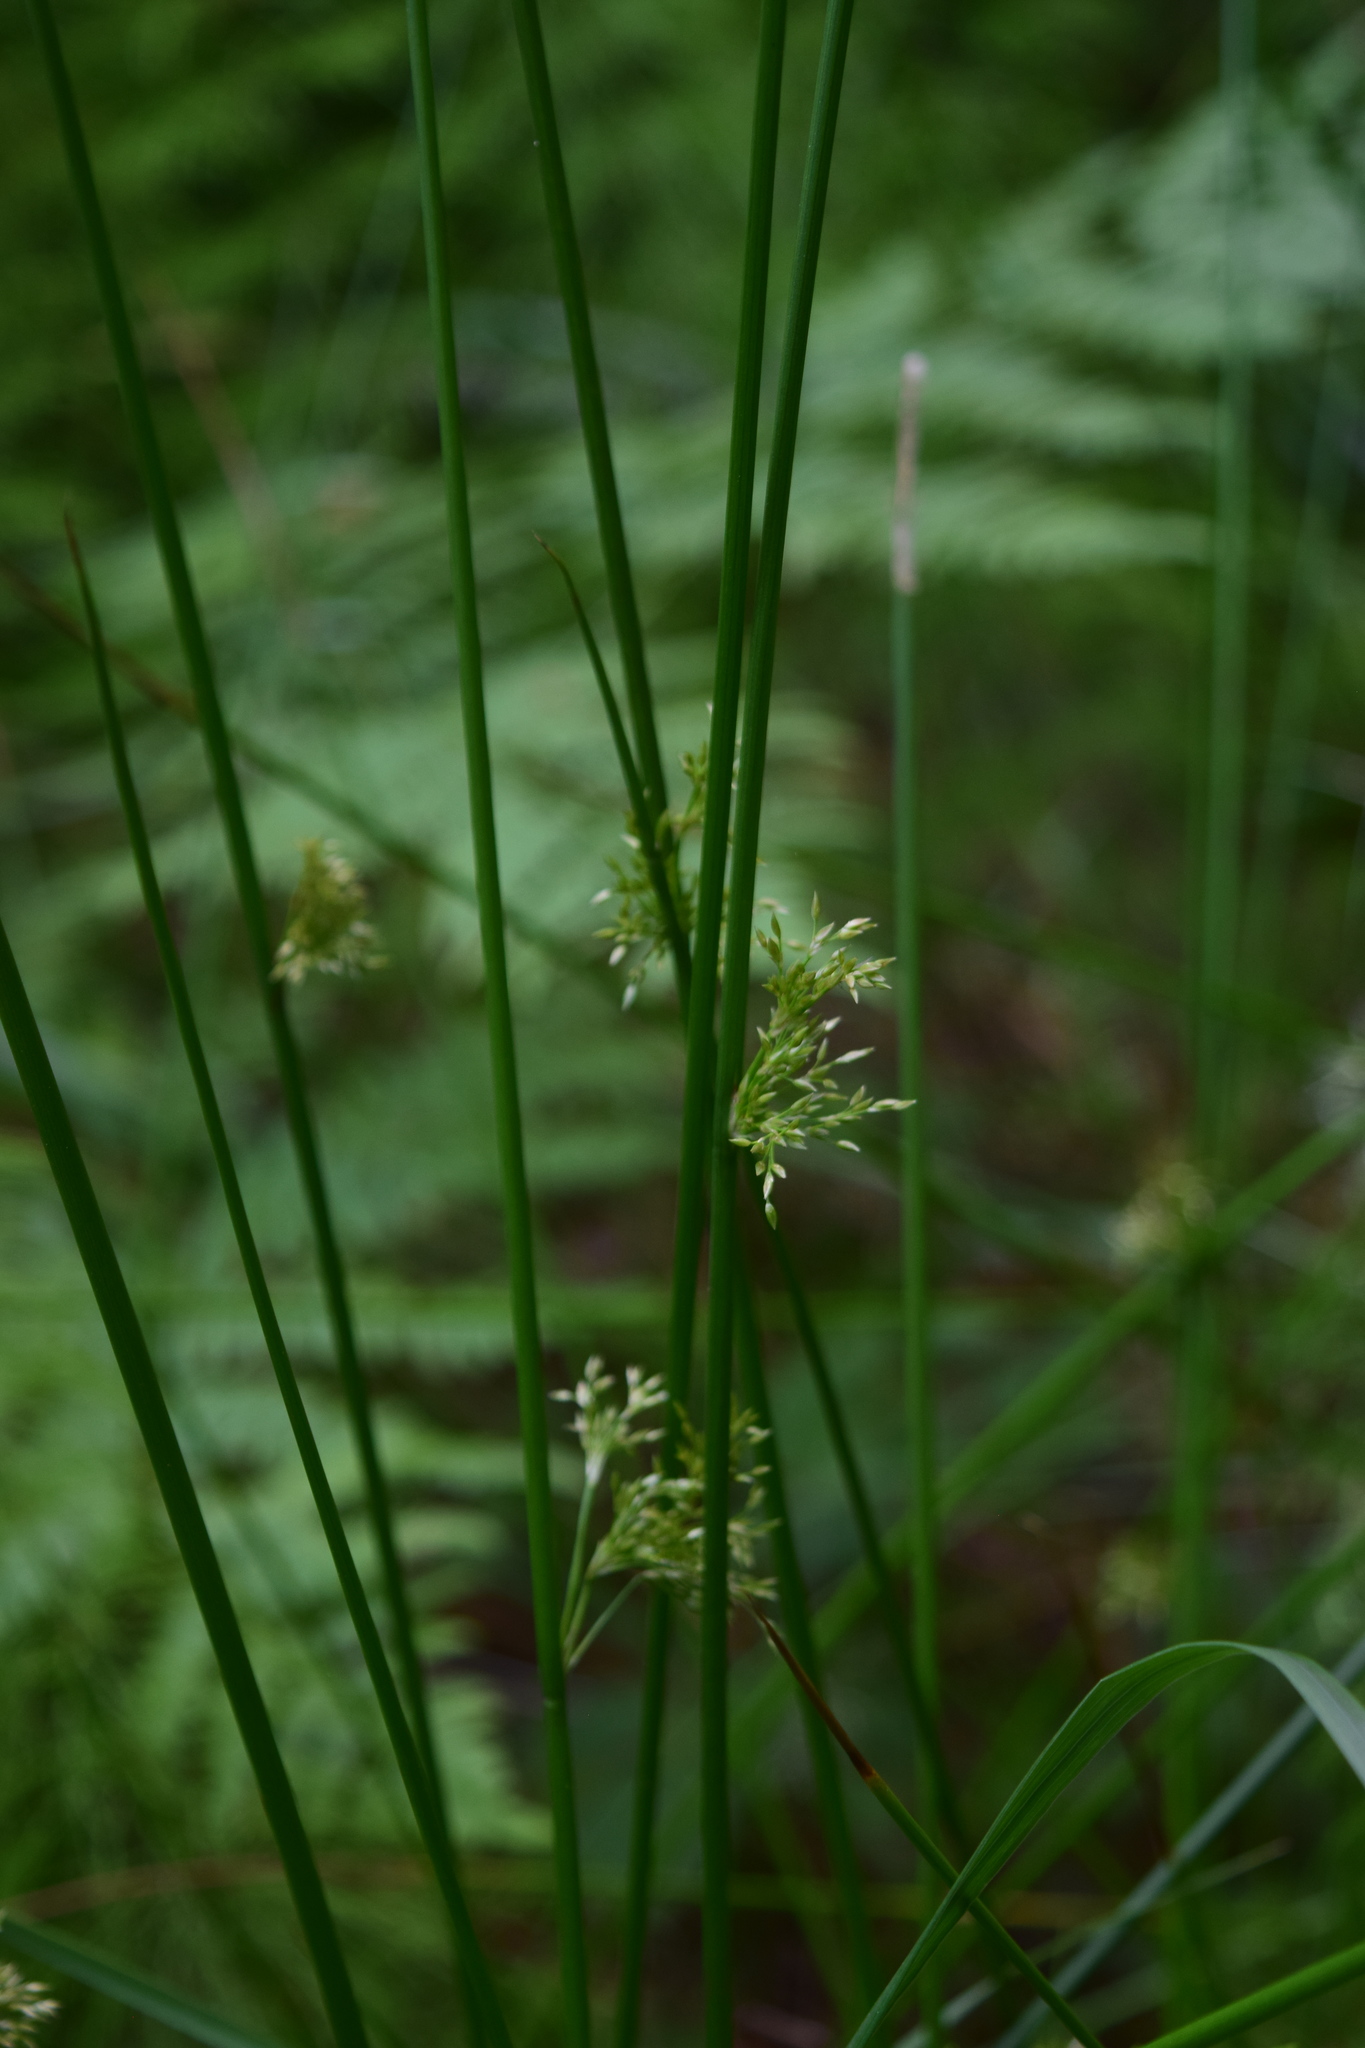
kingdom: Plantae
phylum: Tracheophyta
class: Liliopsida
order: Poales
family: Juncaceae
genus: Juncus
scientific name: Juncus effusus
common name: Soft rush
